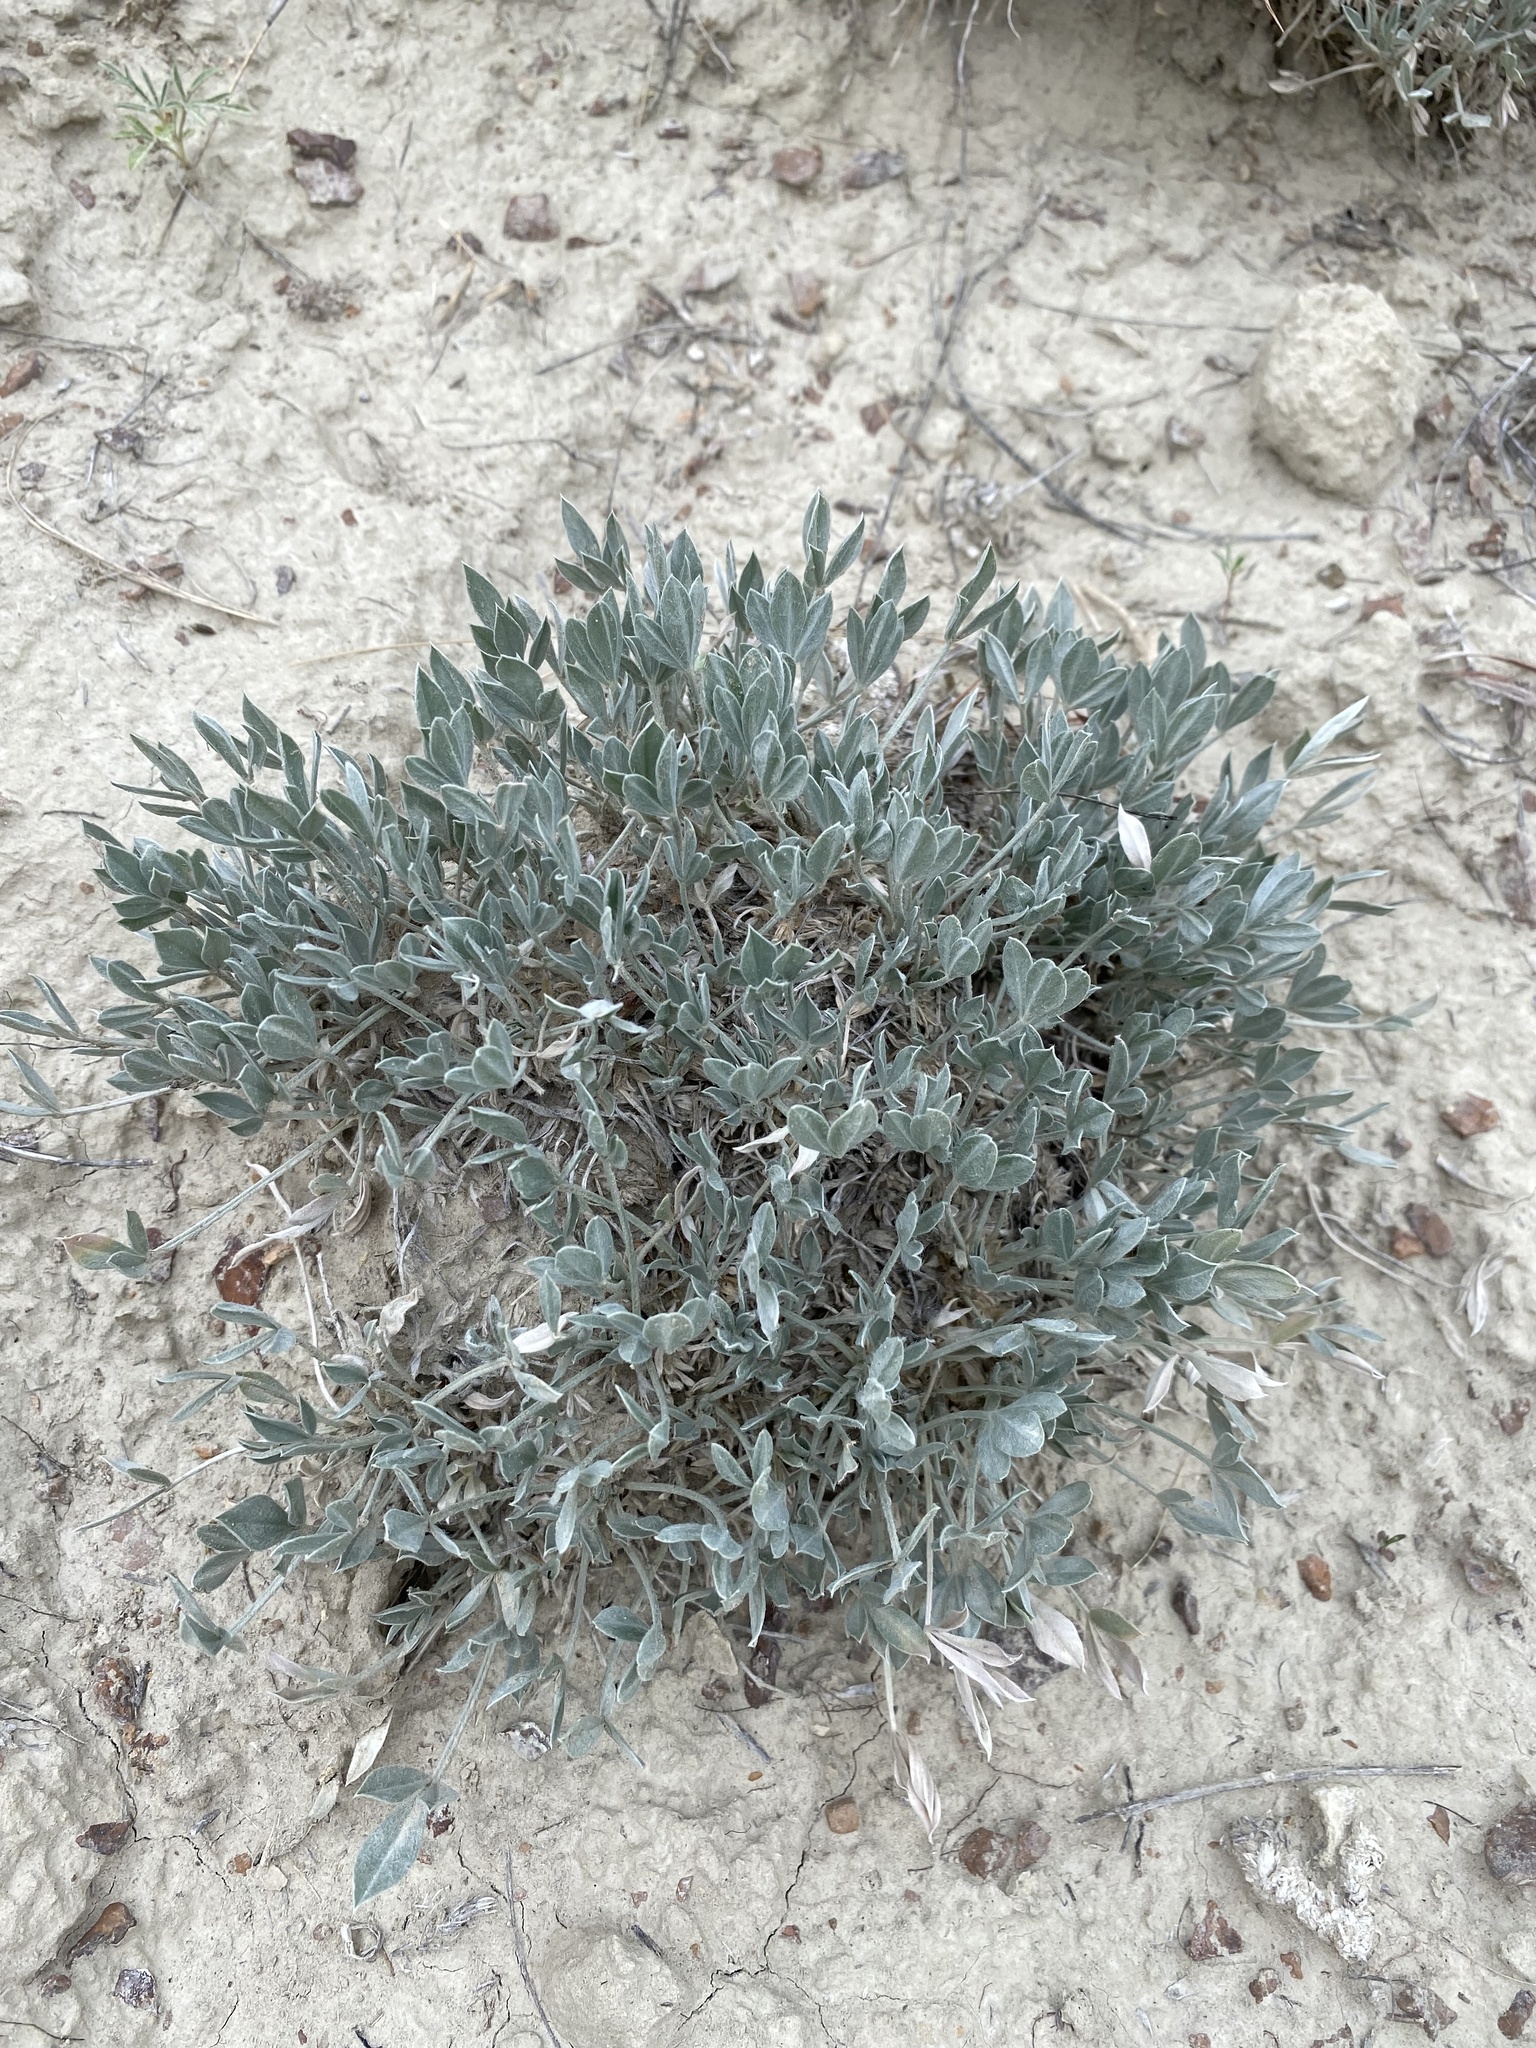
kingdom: Plantae
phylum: Tracheophyta
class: Magnoliopsida
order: Fabales
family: Fabaceae
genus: Astragalus
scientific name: Astragalus gilviflorus
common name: Cushion milk-vetch
